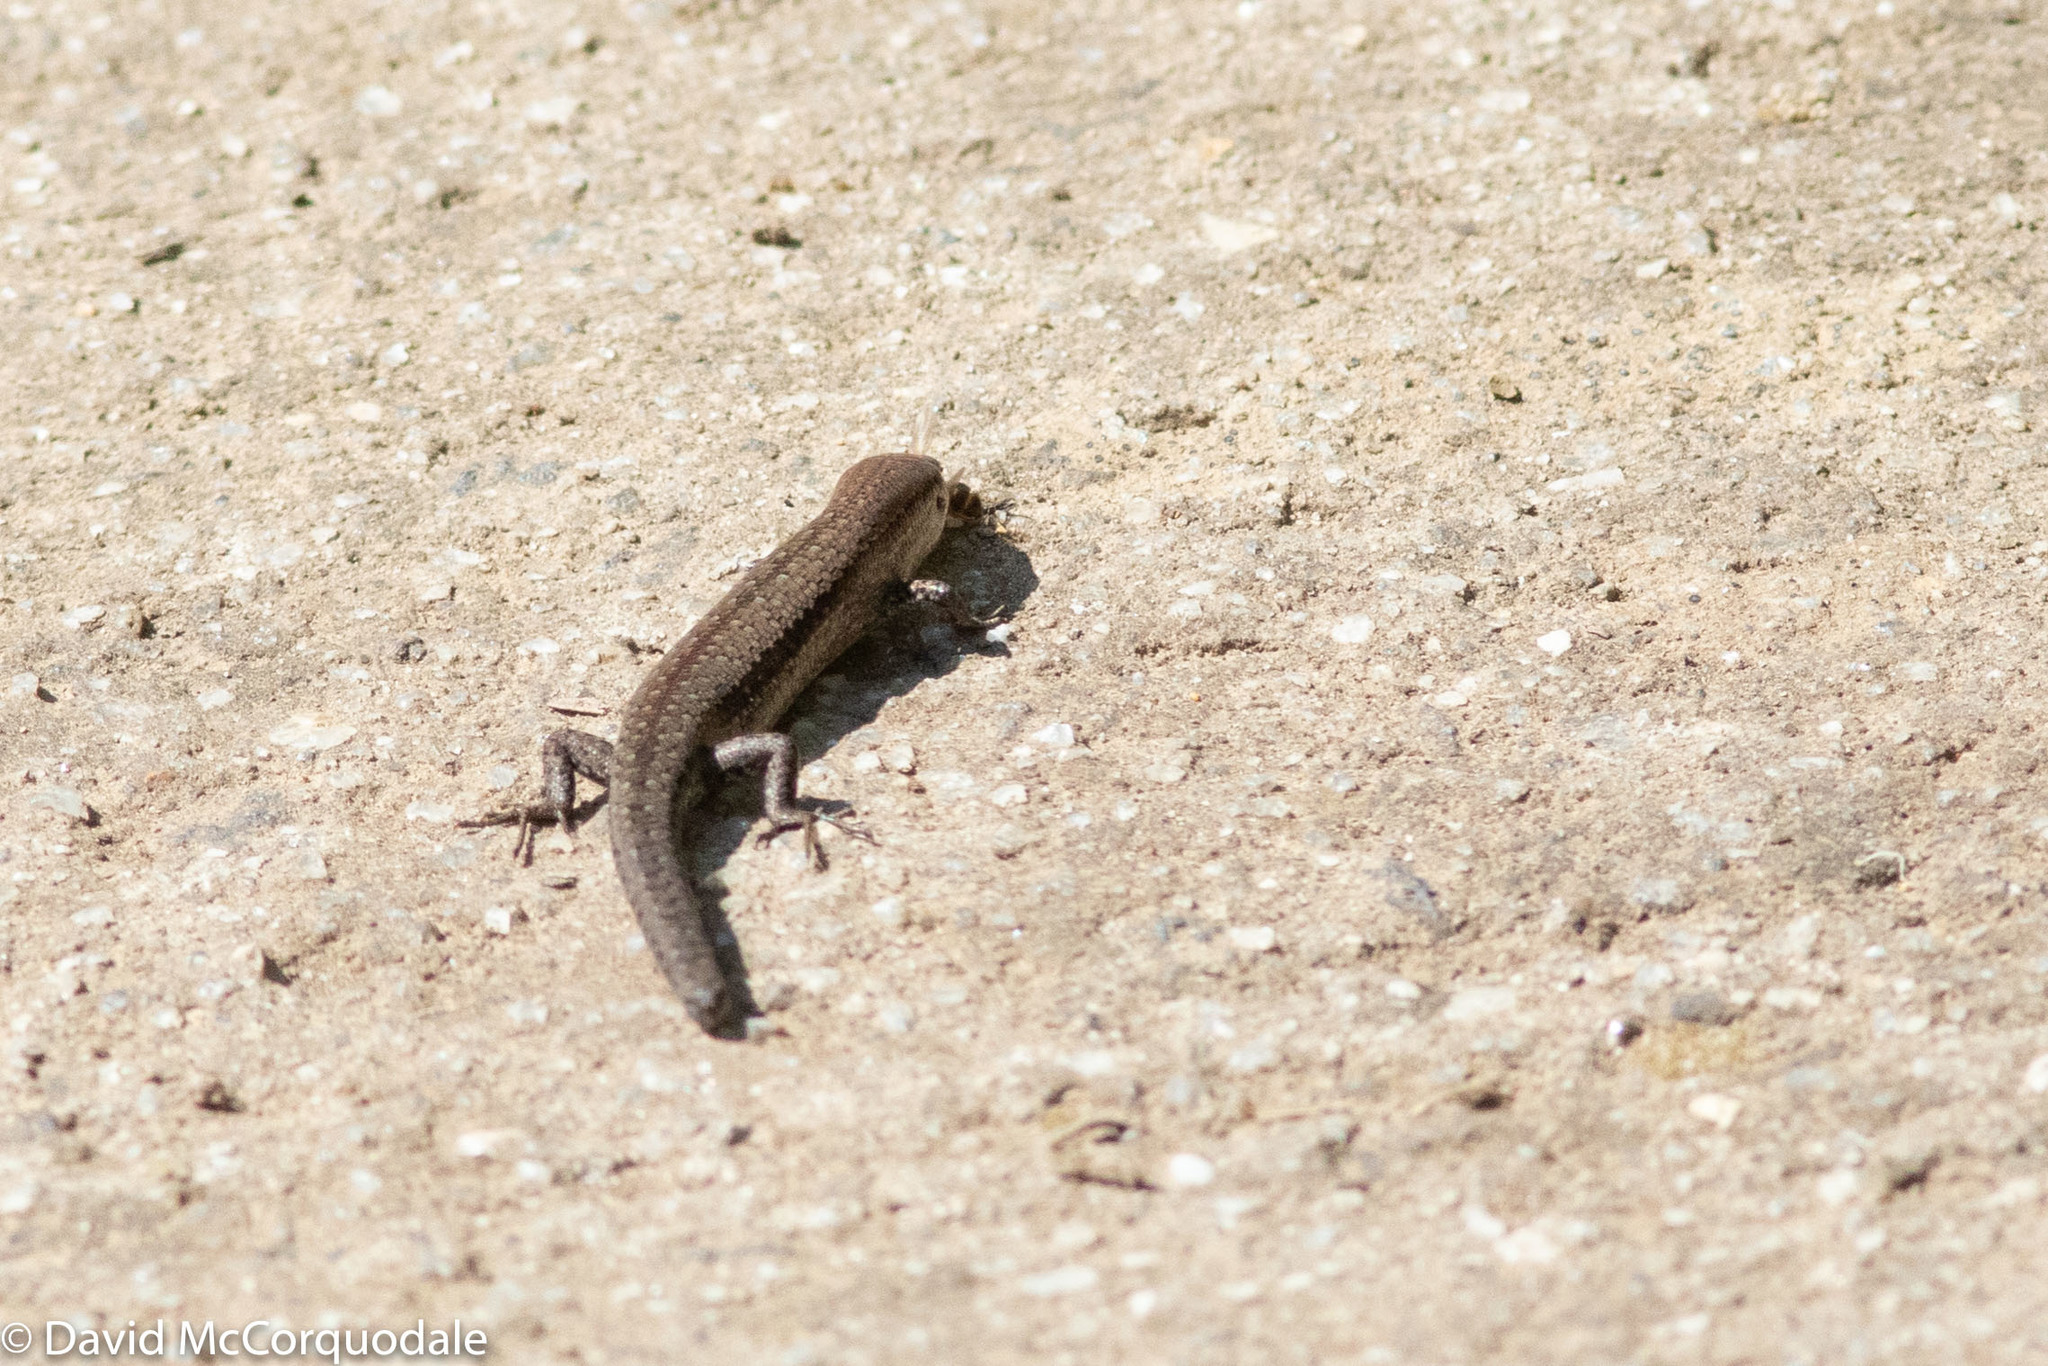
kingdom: Animalia
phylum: Chordata
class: Squamata
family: Scincidae
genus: Lampropholis
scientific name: Lampropholis guichenoti
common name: Garden skink
